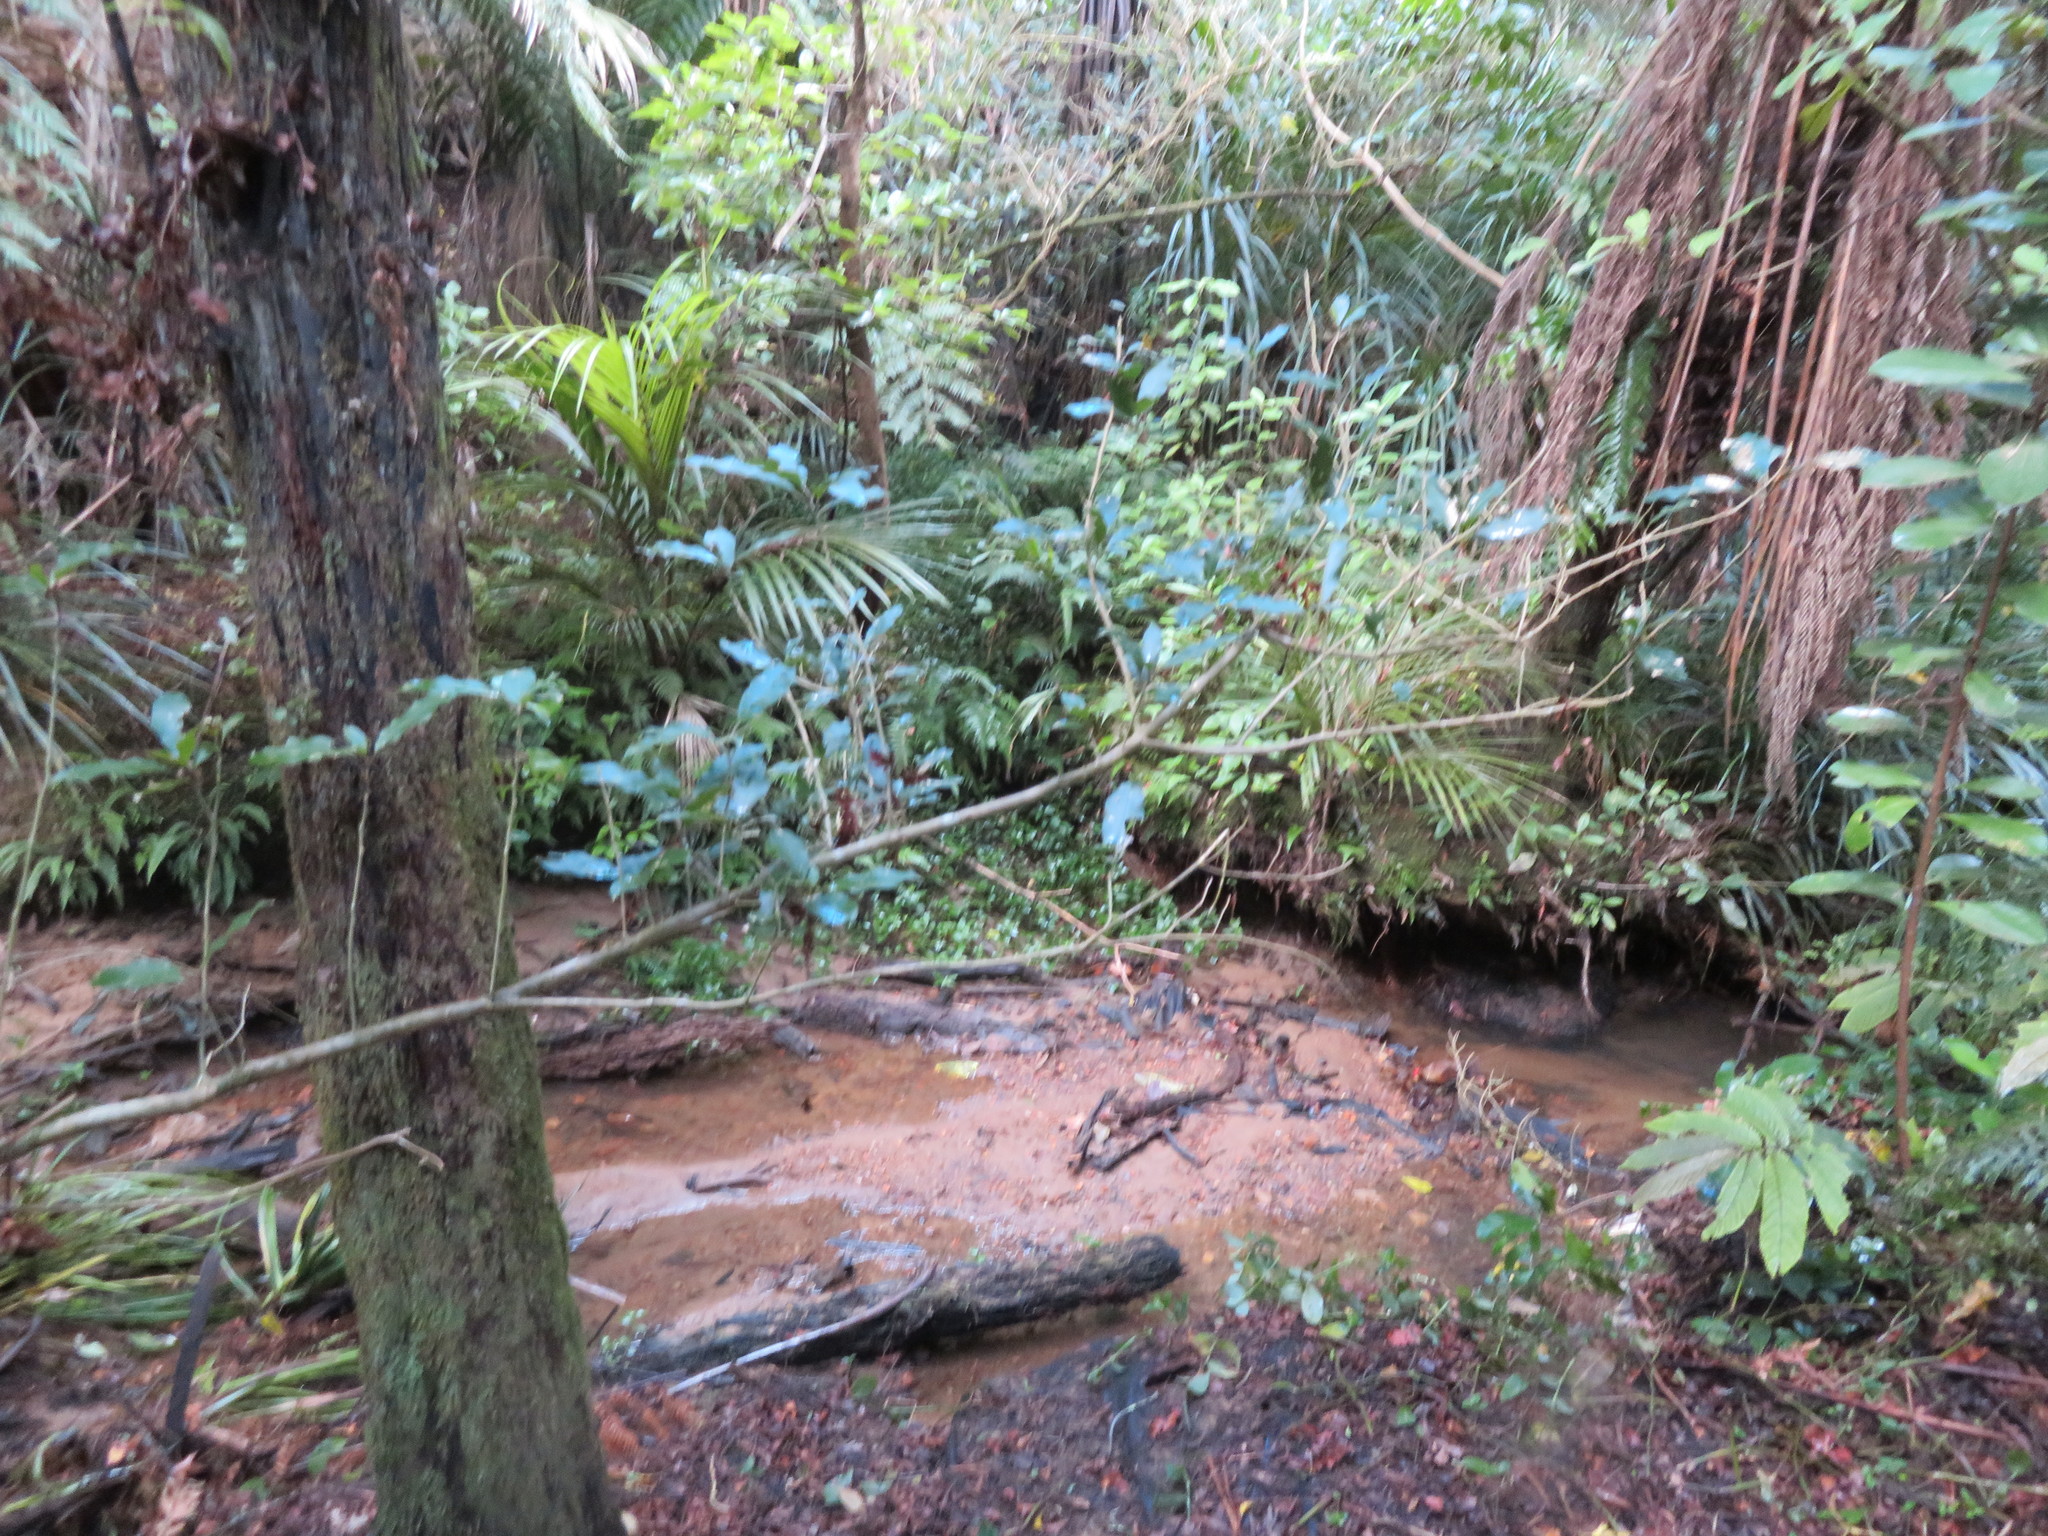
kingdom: Plantae
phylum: Tracheophyta
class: Liliopsida
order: Arecales
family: Arecaceae
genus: Rhopalostylis
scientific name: Rhopalostylis sapida
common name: Feather-duster palm
